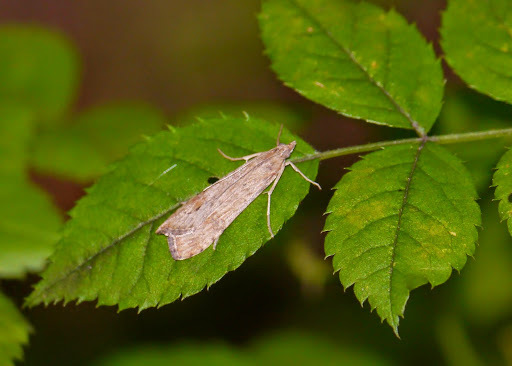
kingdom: Animalia
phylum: Arthropoda
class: Insecta
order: Lepidoptera
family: Crambidae
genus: Nomophila
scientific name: Nomophila nearctica
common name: American rush veneer
